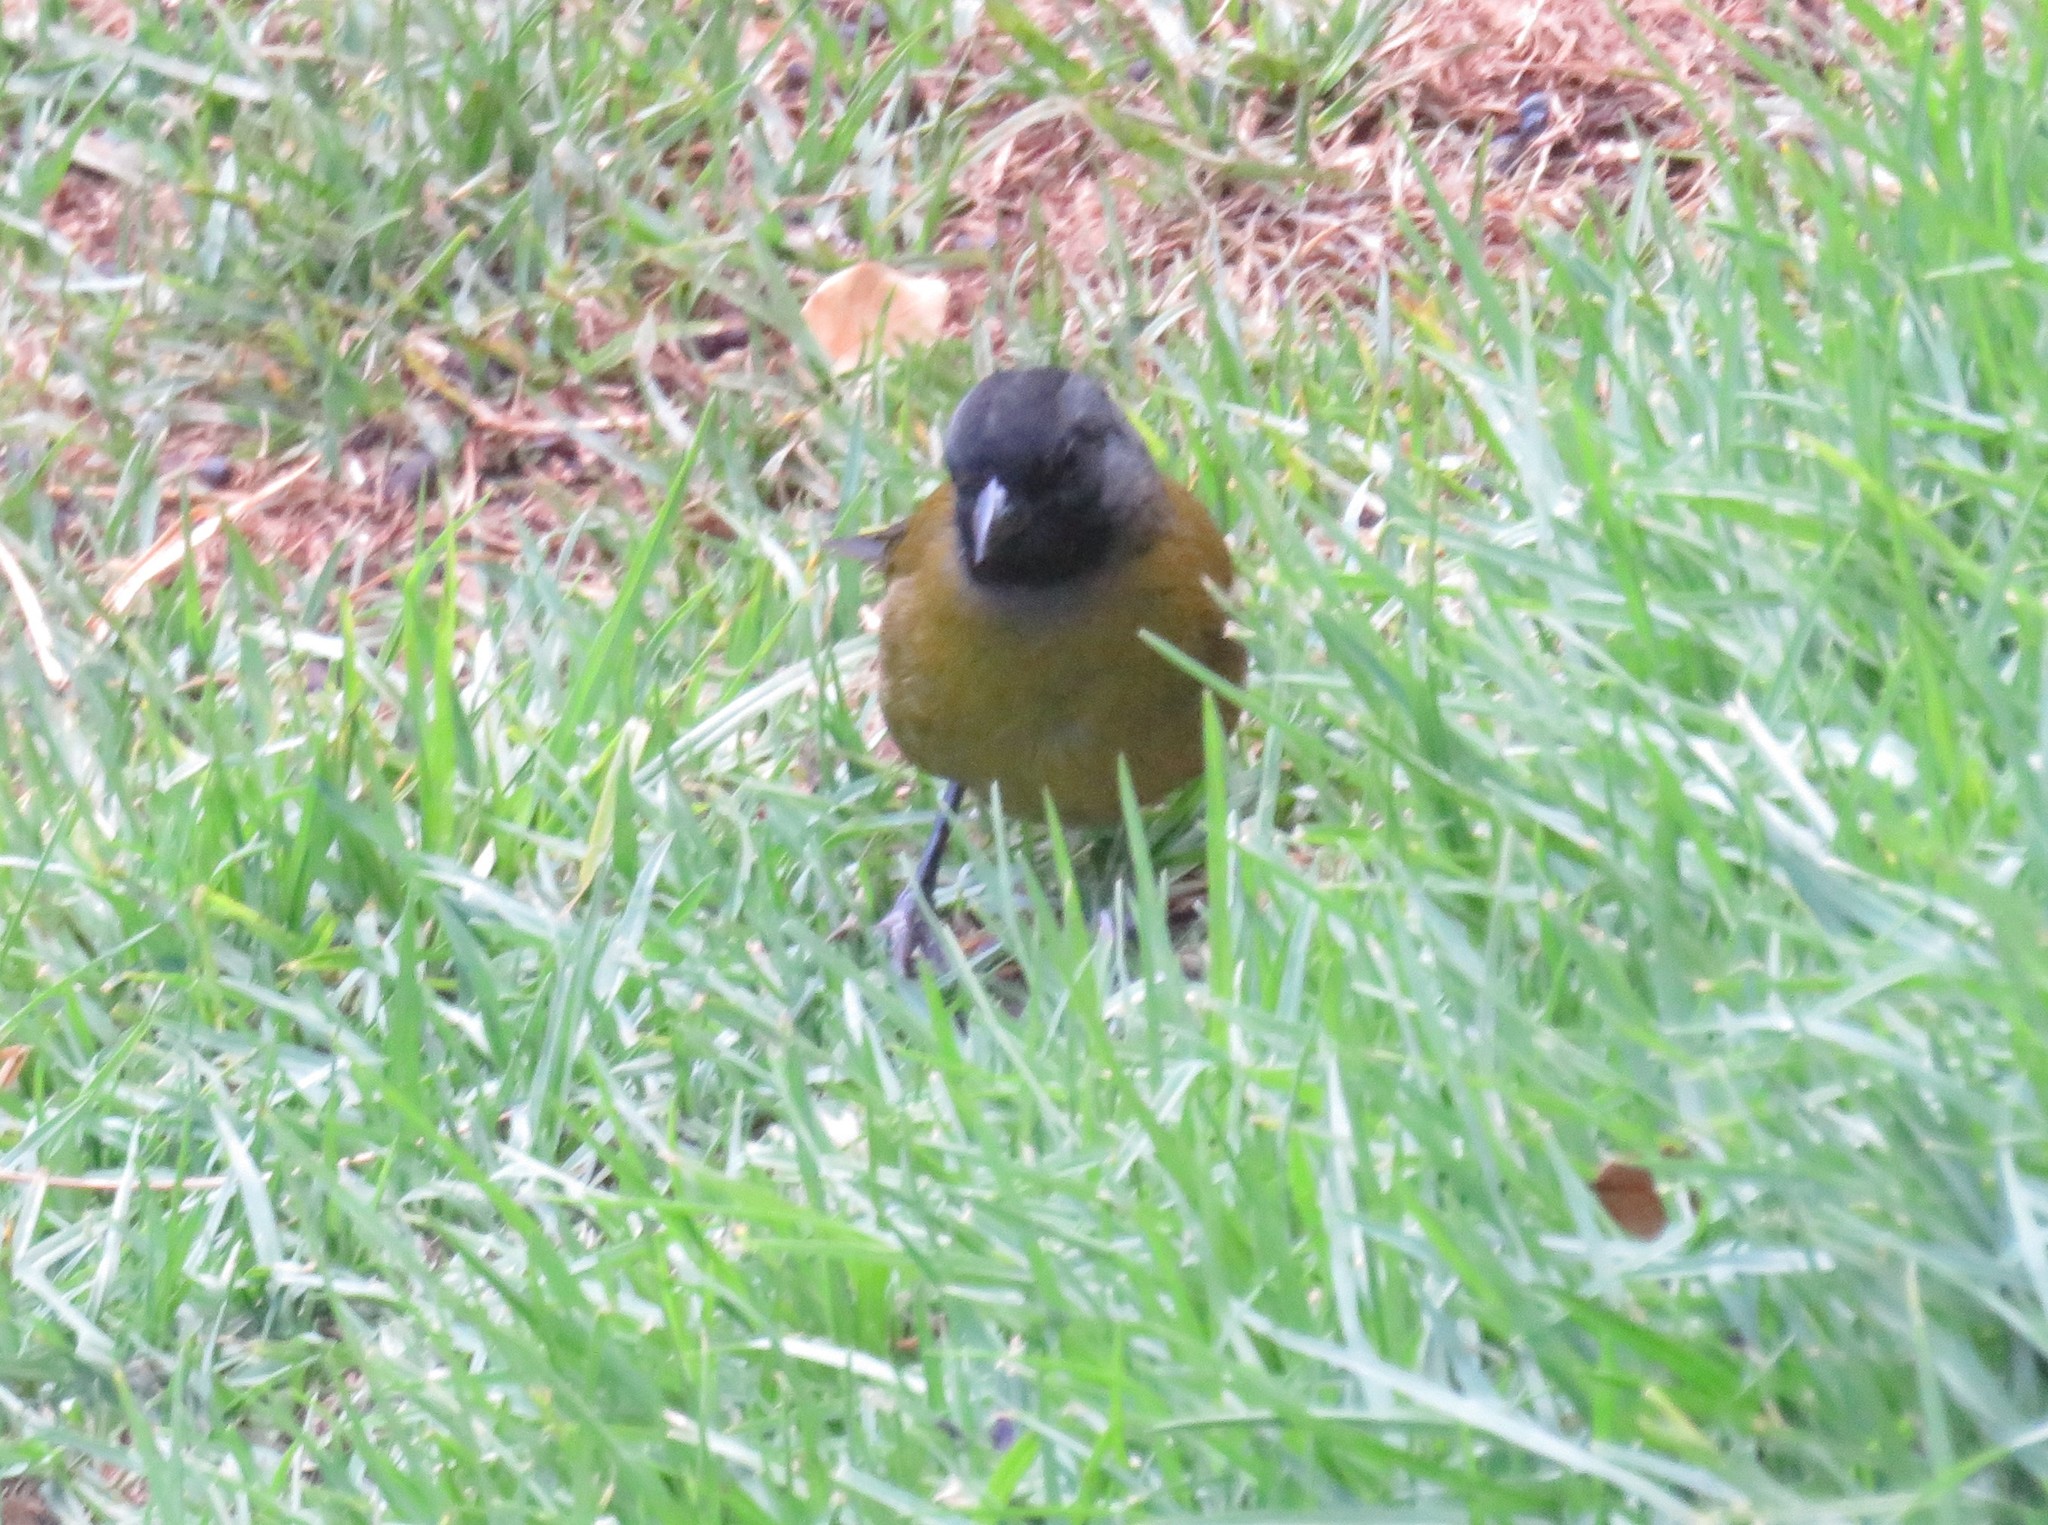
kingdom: Animalia
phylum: Chordata
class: Aves
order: Passeriformes
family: Passerellidae
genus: Pezopetes
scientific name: Pezopetes capitalis
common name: Large-footed finch
